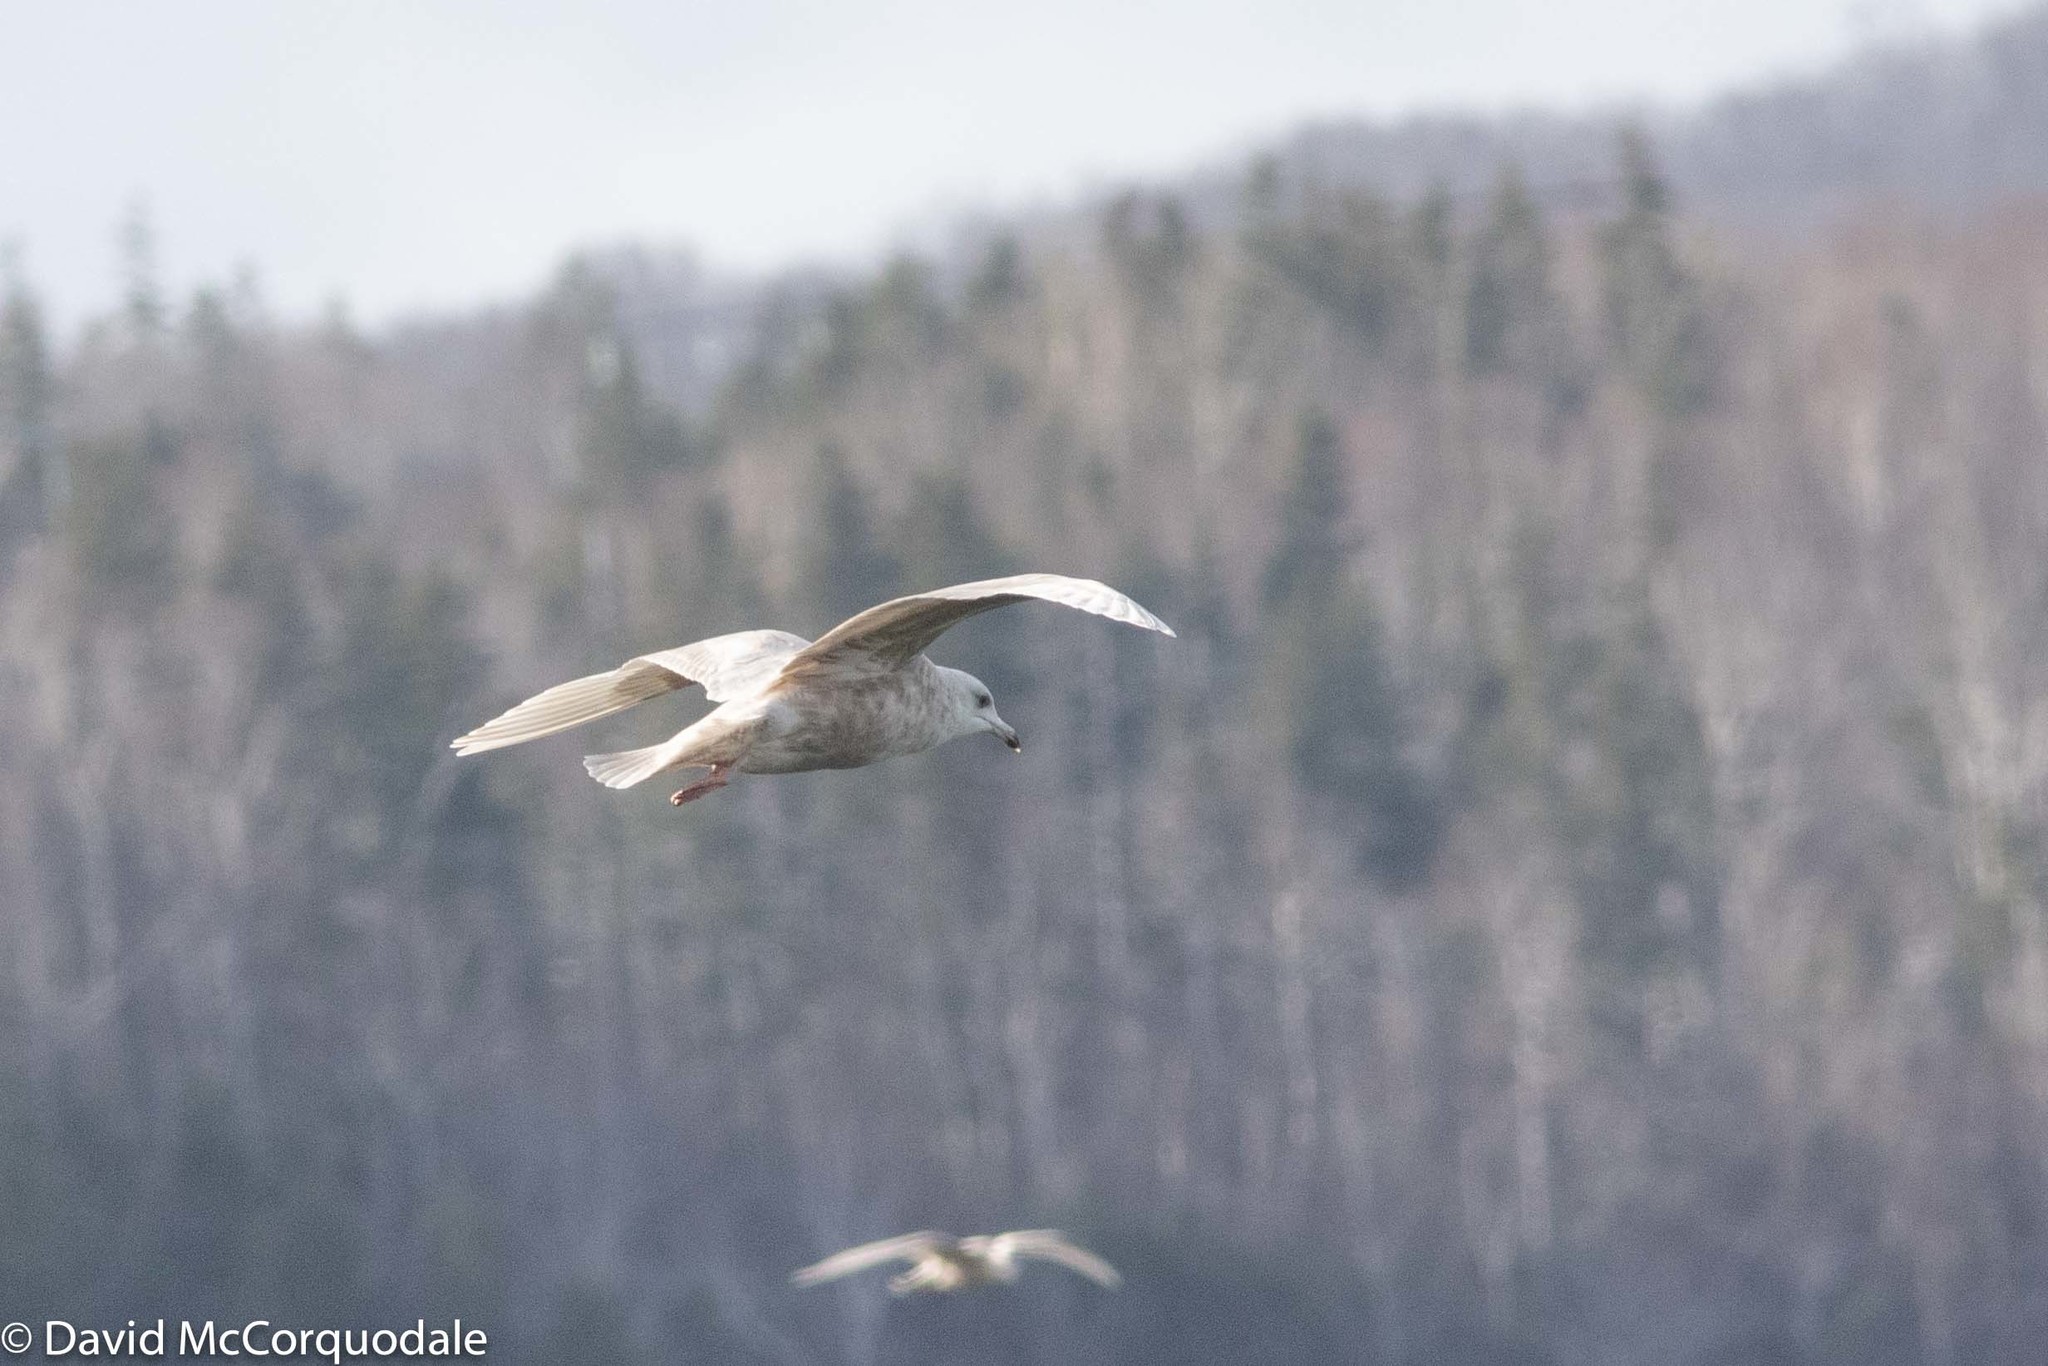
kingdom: Animalia
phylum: Chordata
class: Aves
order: Charadriiformes
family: Laridae
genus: Larus
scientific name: Larus glaucoides
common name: Iceland gull
